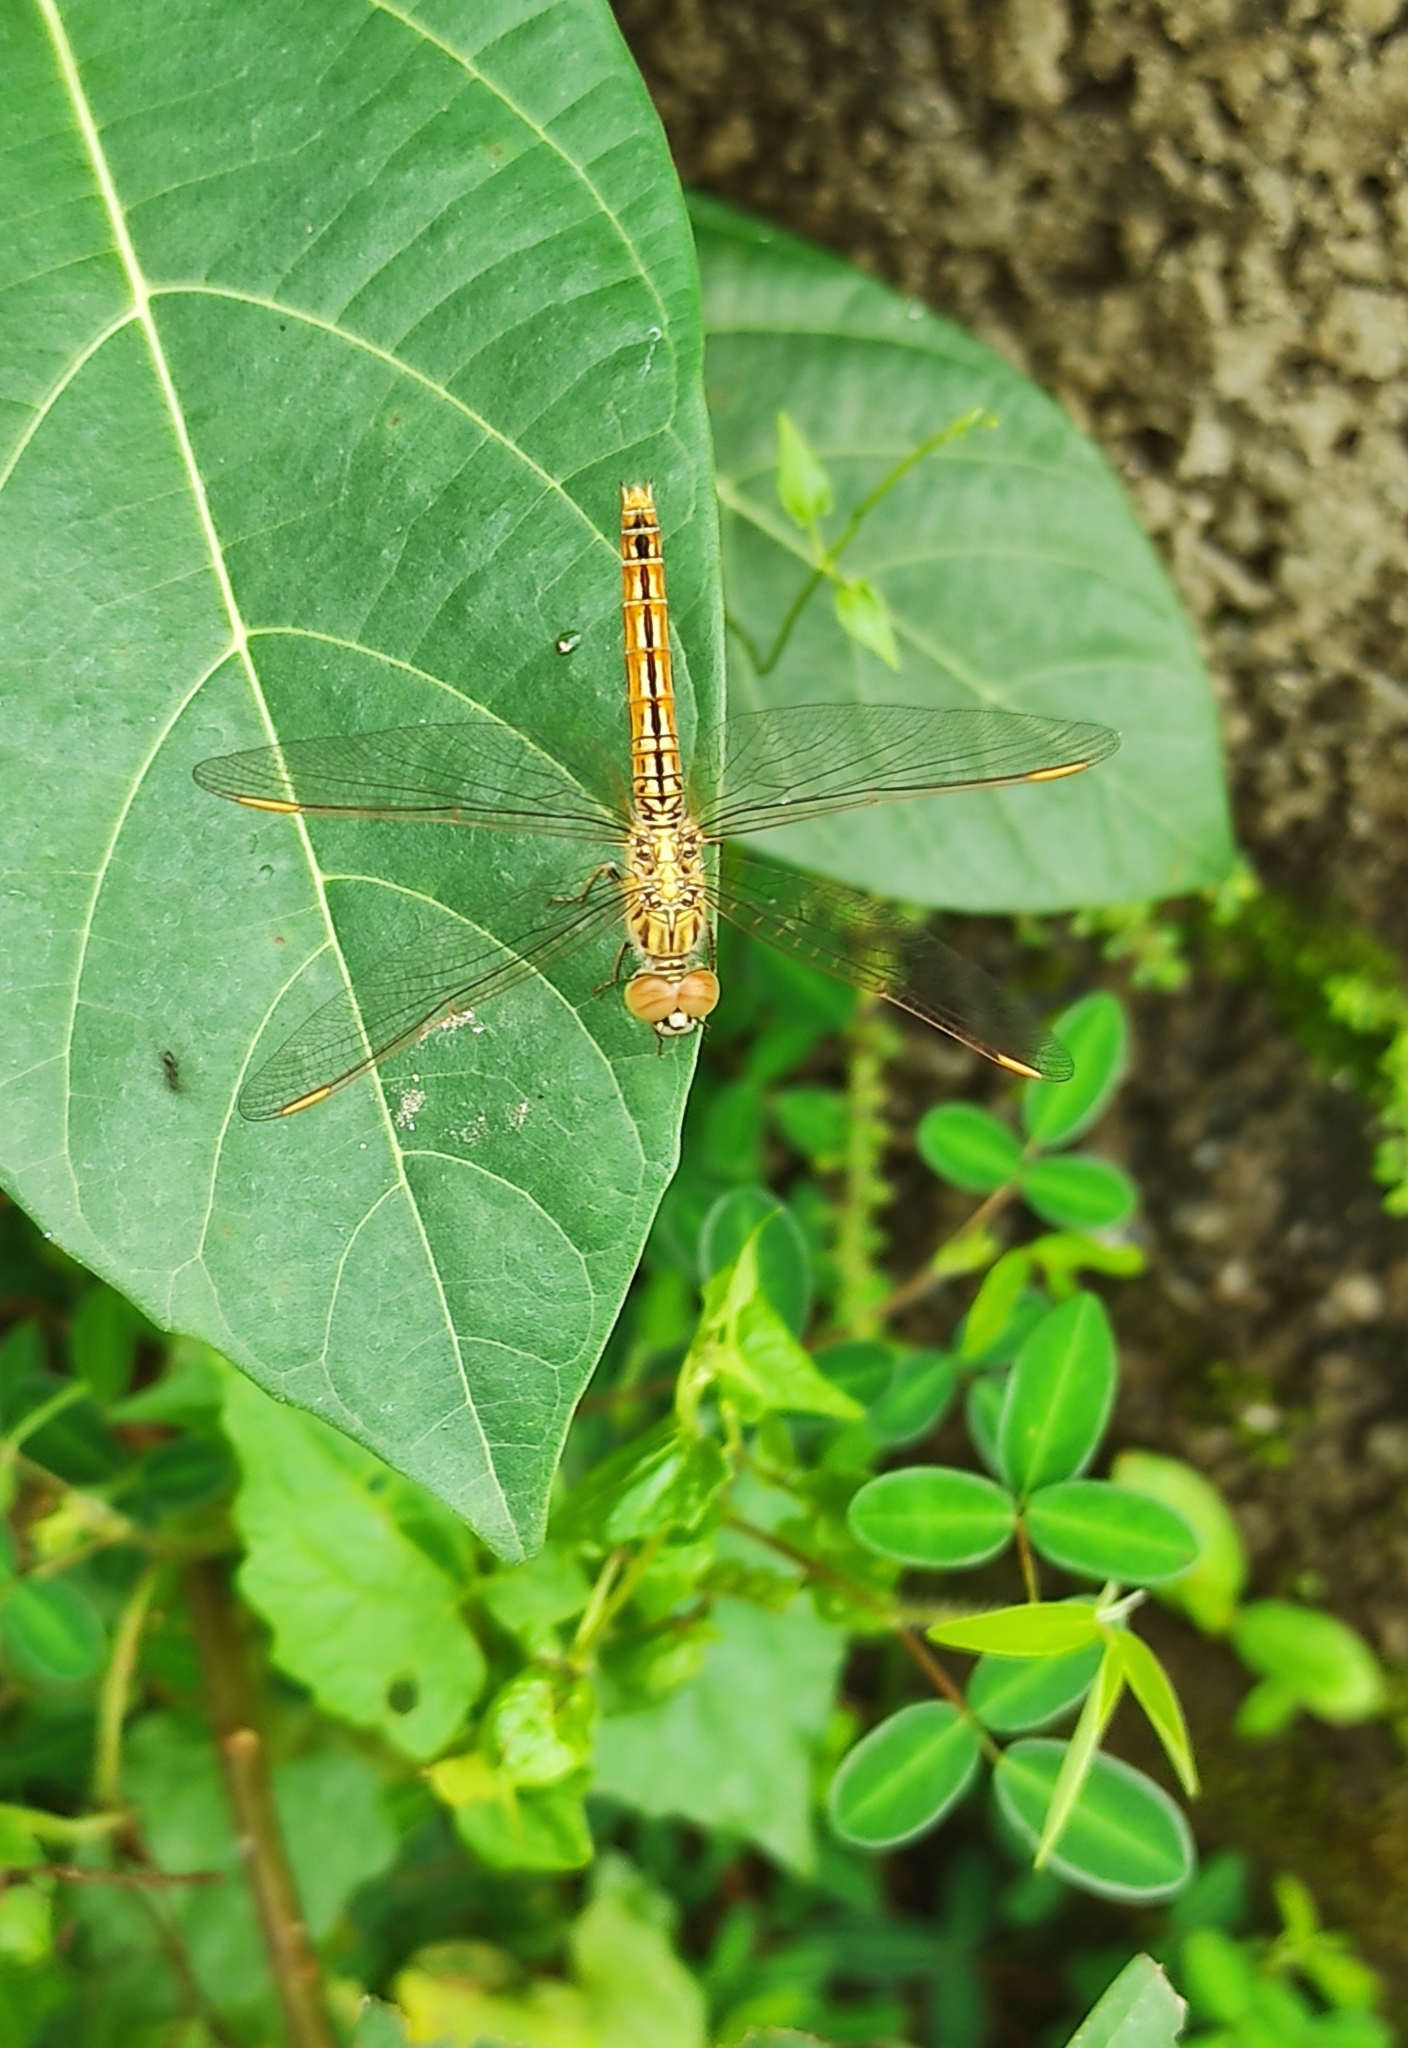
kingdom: Animalia
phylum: Arthropoda
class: Insecta
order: Odonata
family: Libellulidae
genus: Brachythemis
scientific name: Brachythemis contaminata
